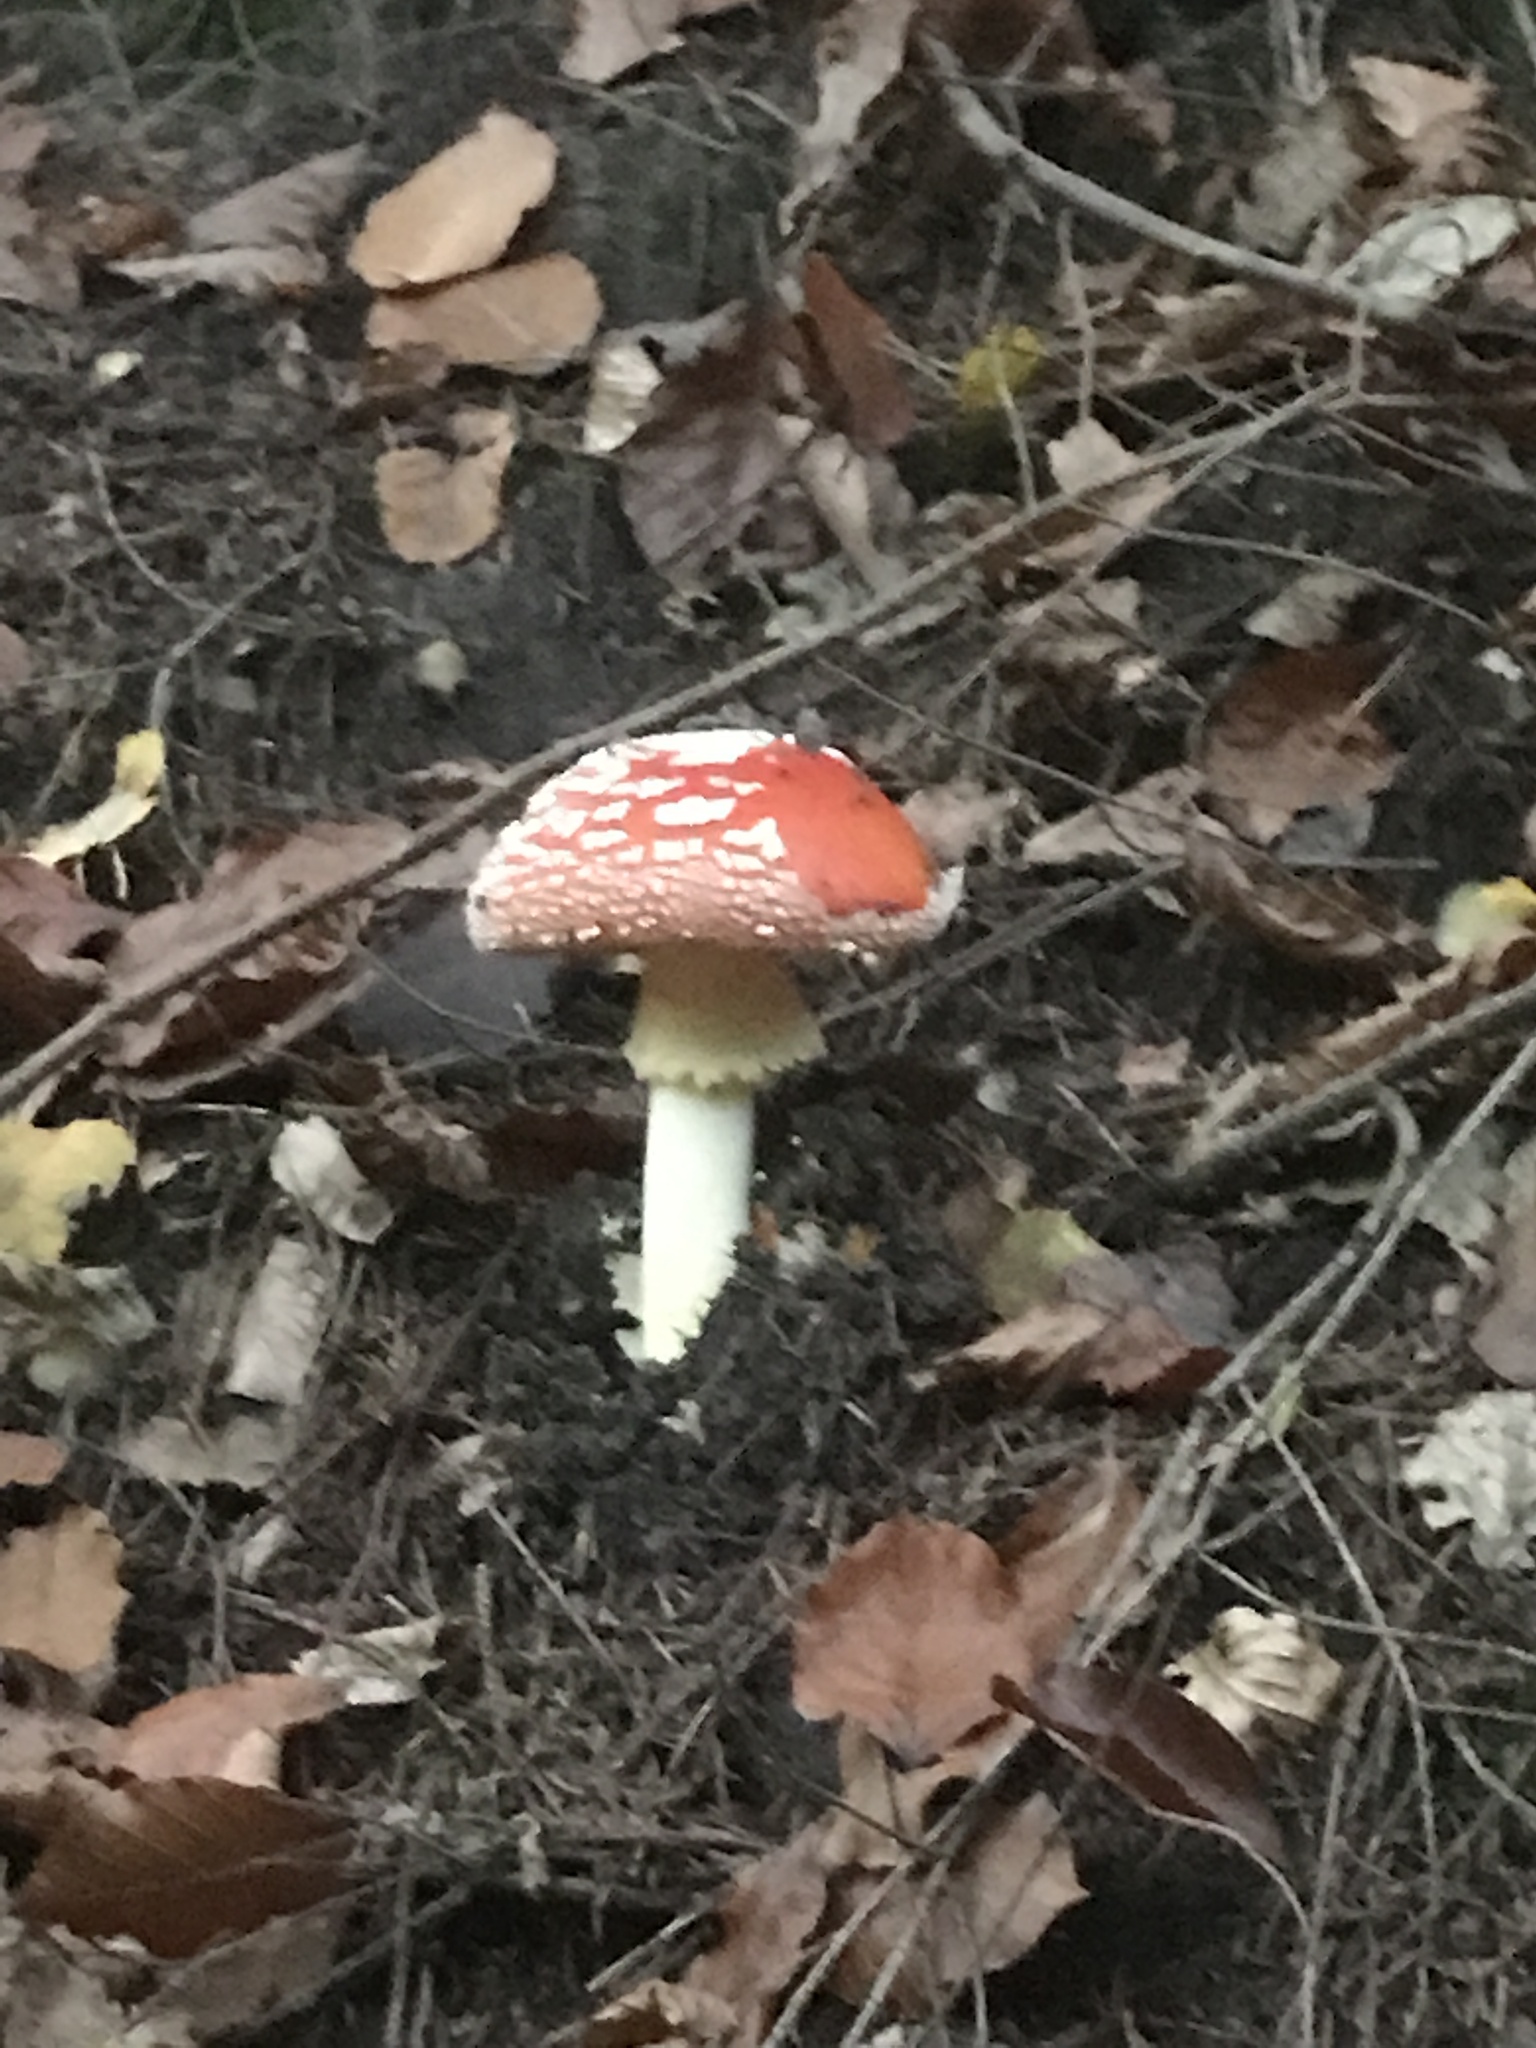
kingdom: Fungi
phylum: Basidiomycota
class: Agaricomycetes
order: Agaricales
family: Amanitaceae
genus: Amanita
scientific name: Amanita muscaria
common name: Fly agaric
